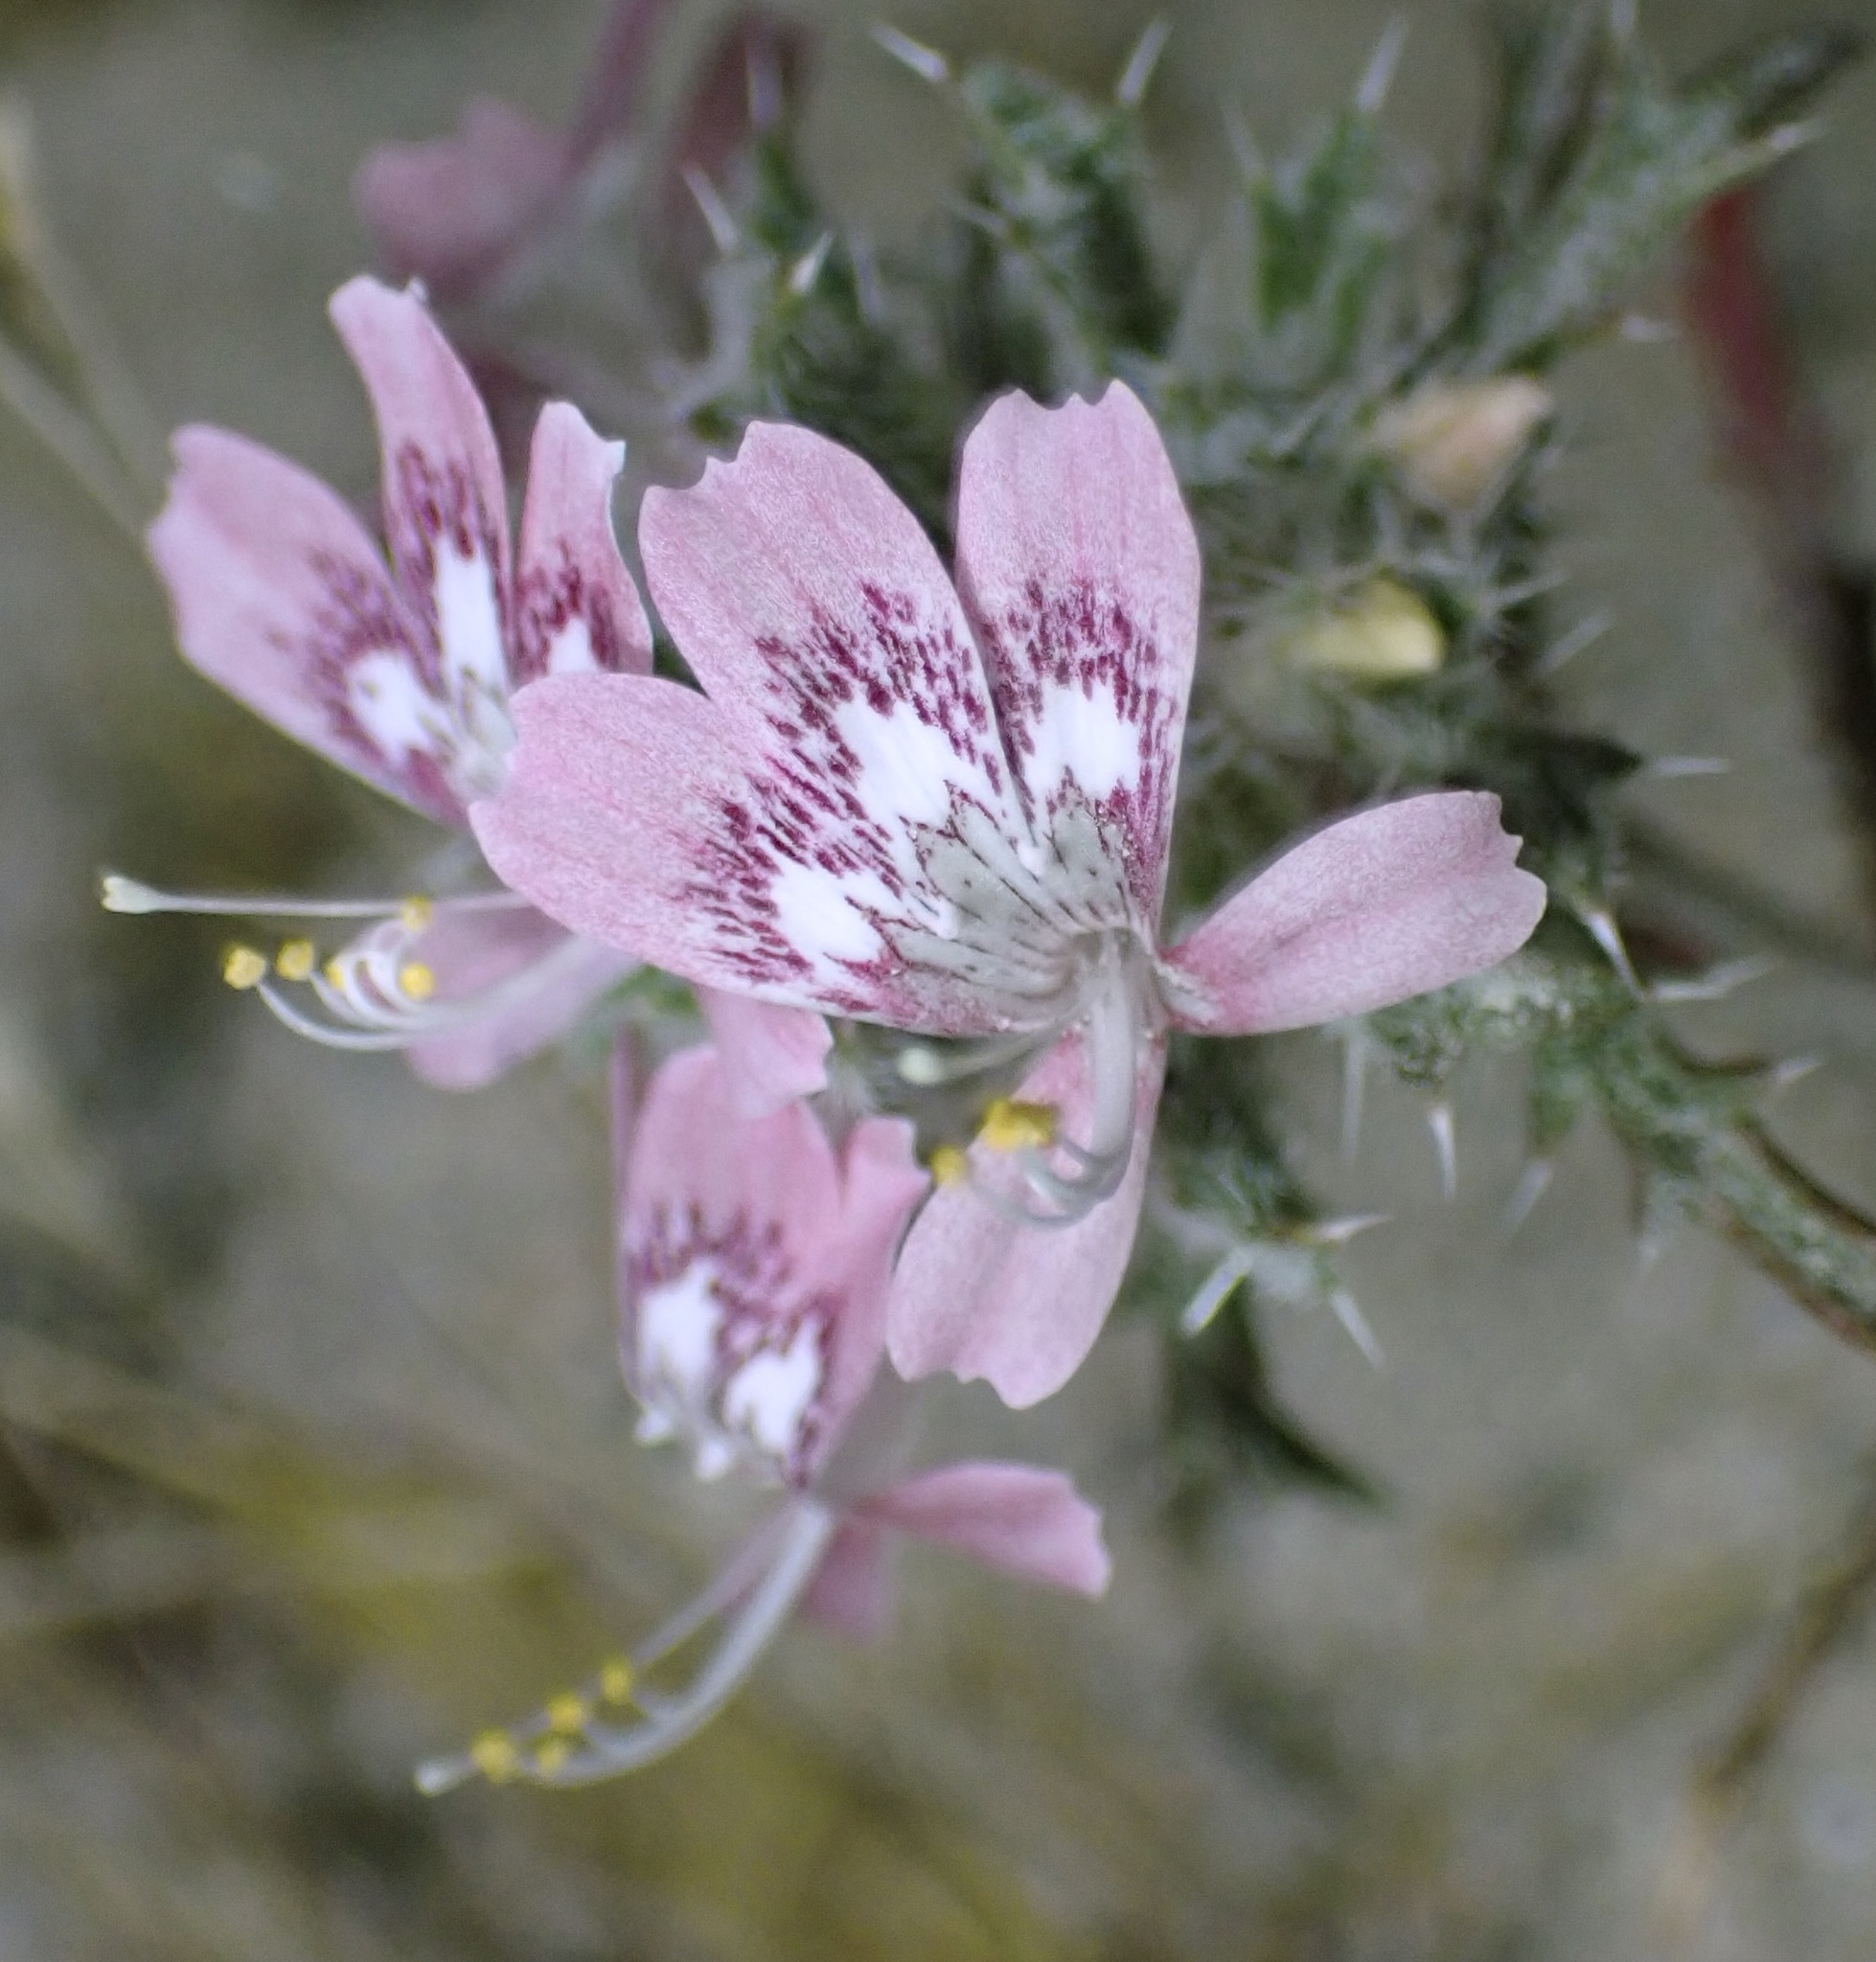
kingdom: Plantae
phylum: Tracheophyta
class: Magnoliopsida
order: Ericales
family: Polemoniaceae
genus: Loeseliastrum
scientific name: Loeseliastrum matthewsii
